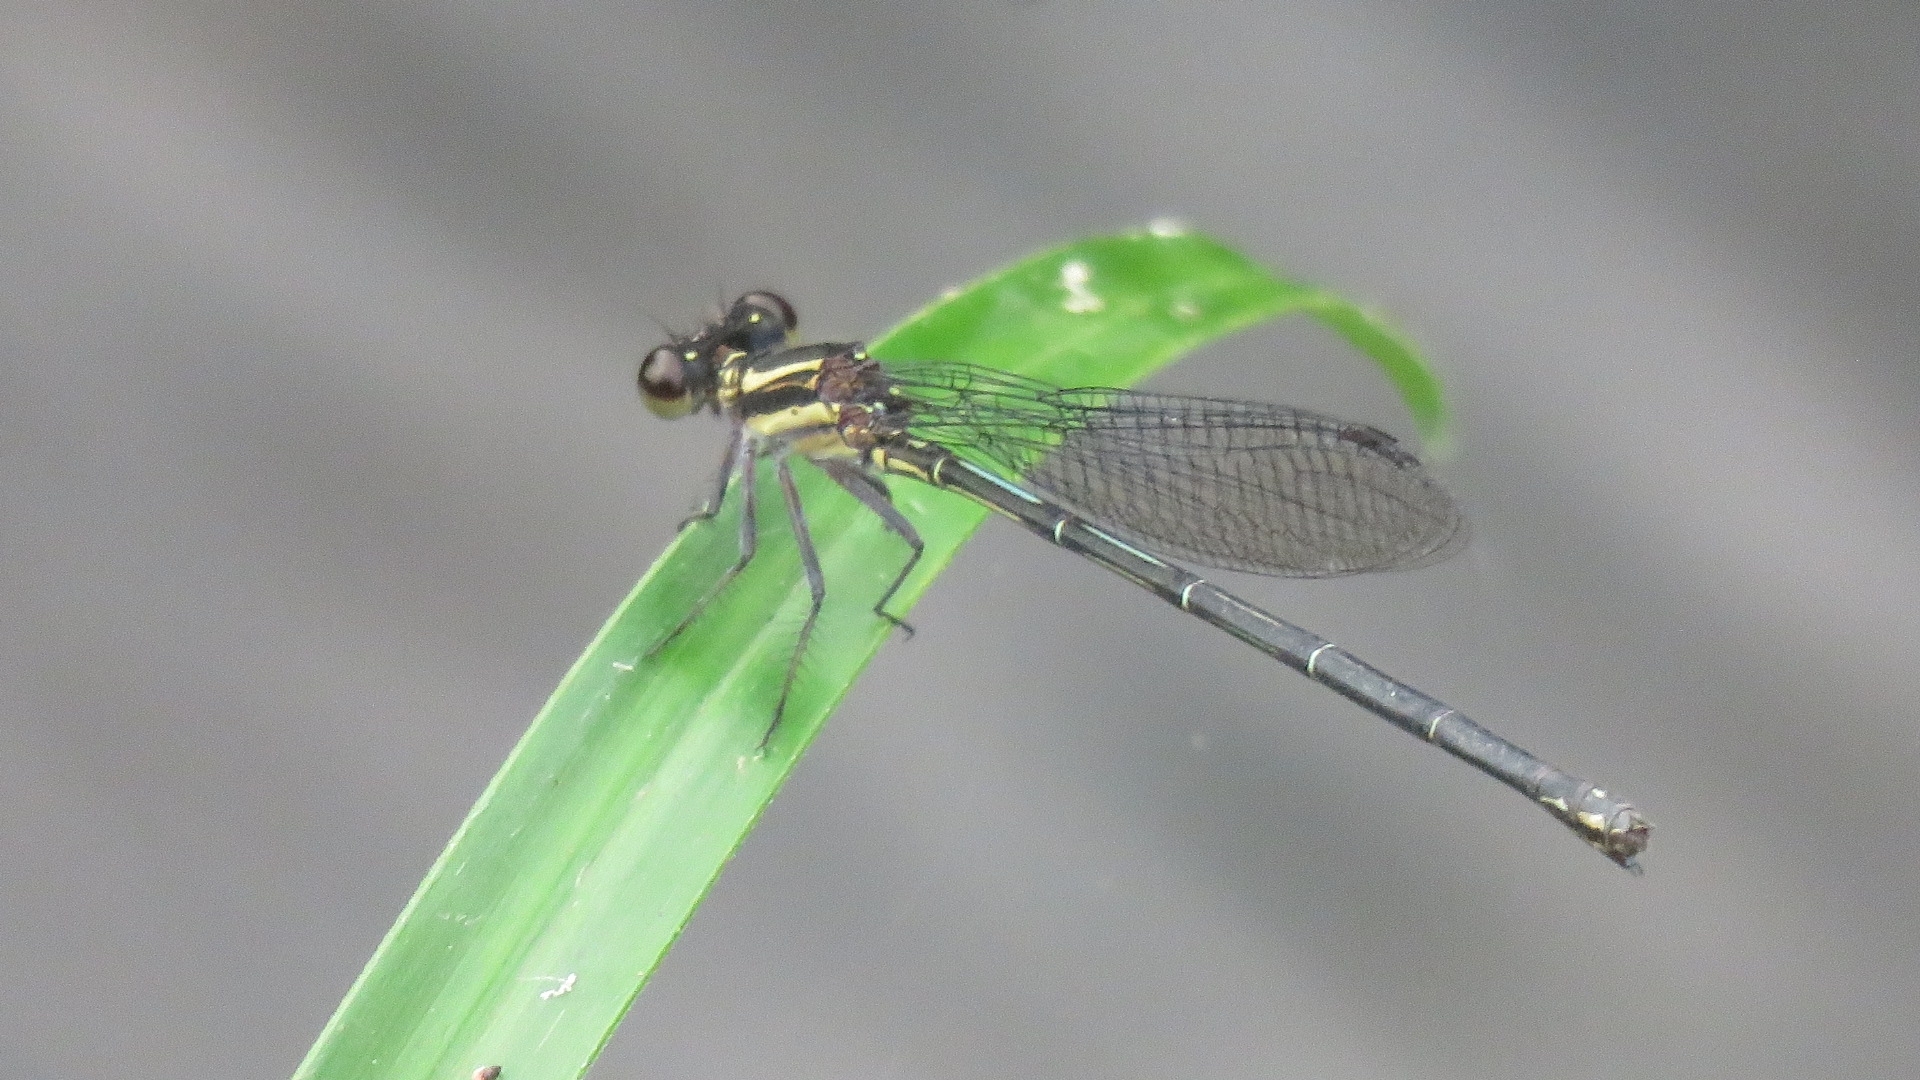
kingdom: Animalia
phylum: Arthropoda
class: Insecta
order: Odonata
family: Coenagrionidae
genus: Argia
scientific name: Argia translata
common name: Dusky dancer
